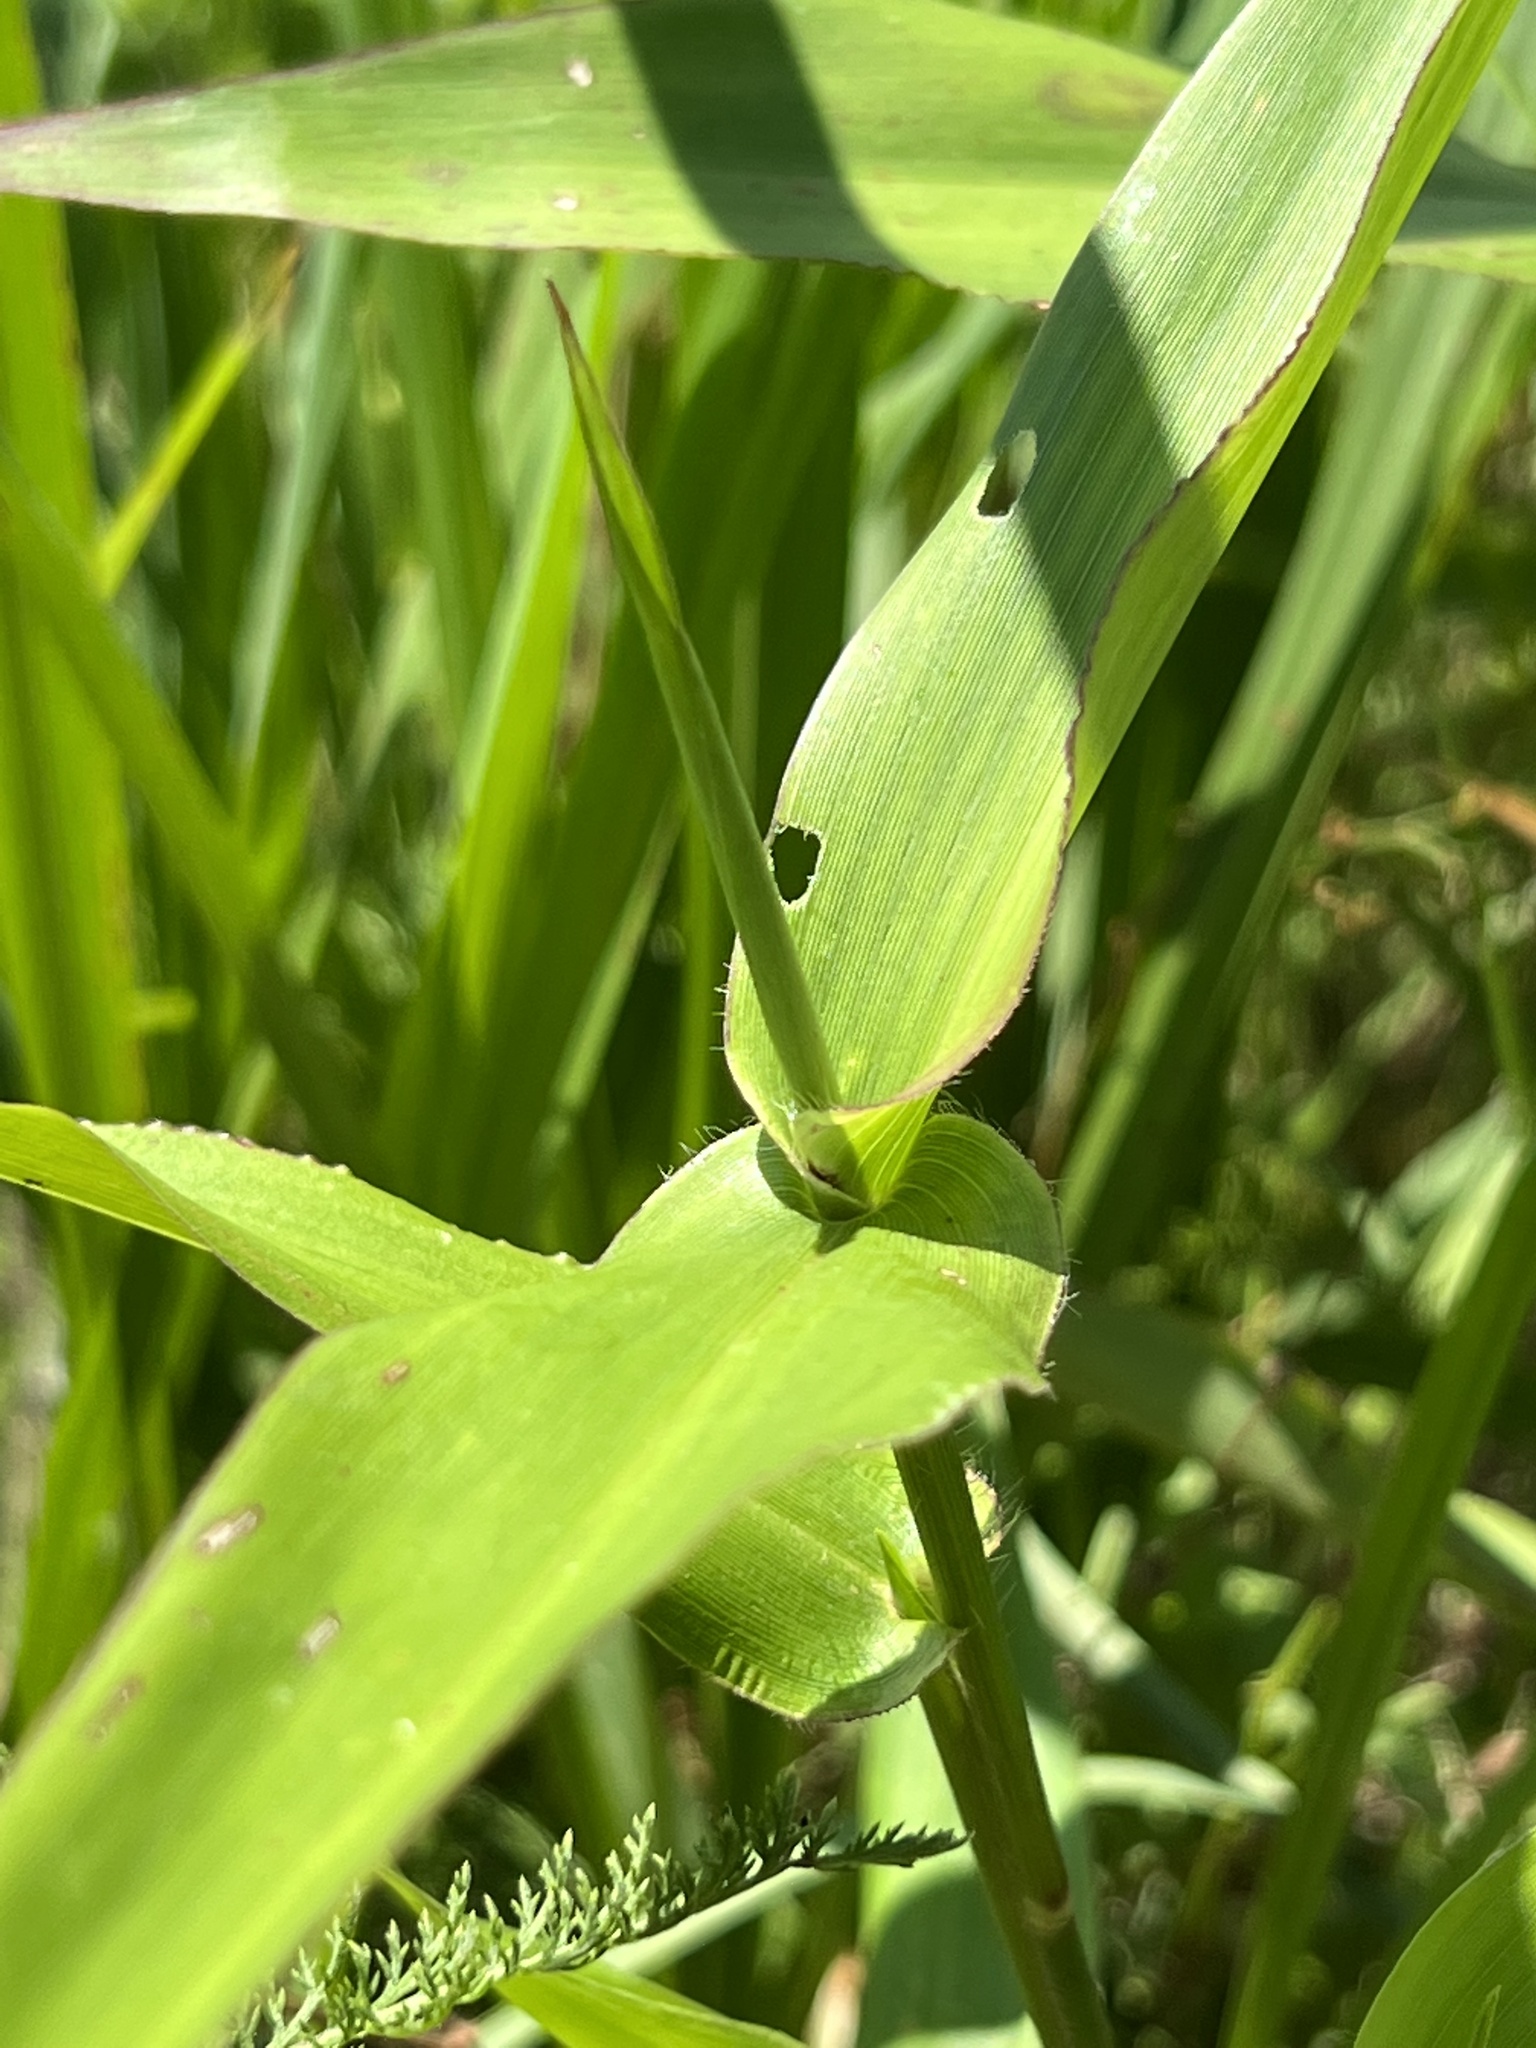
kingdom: Plantae
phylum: Tracheophyta
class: Liliopsida
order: Poales
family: Poaceae
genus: Dichanthelium
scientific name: Dichanthelium clandestinum
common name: Deer-tongue grass
